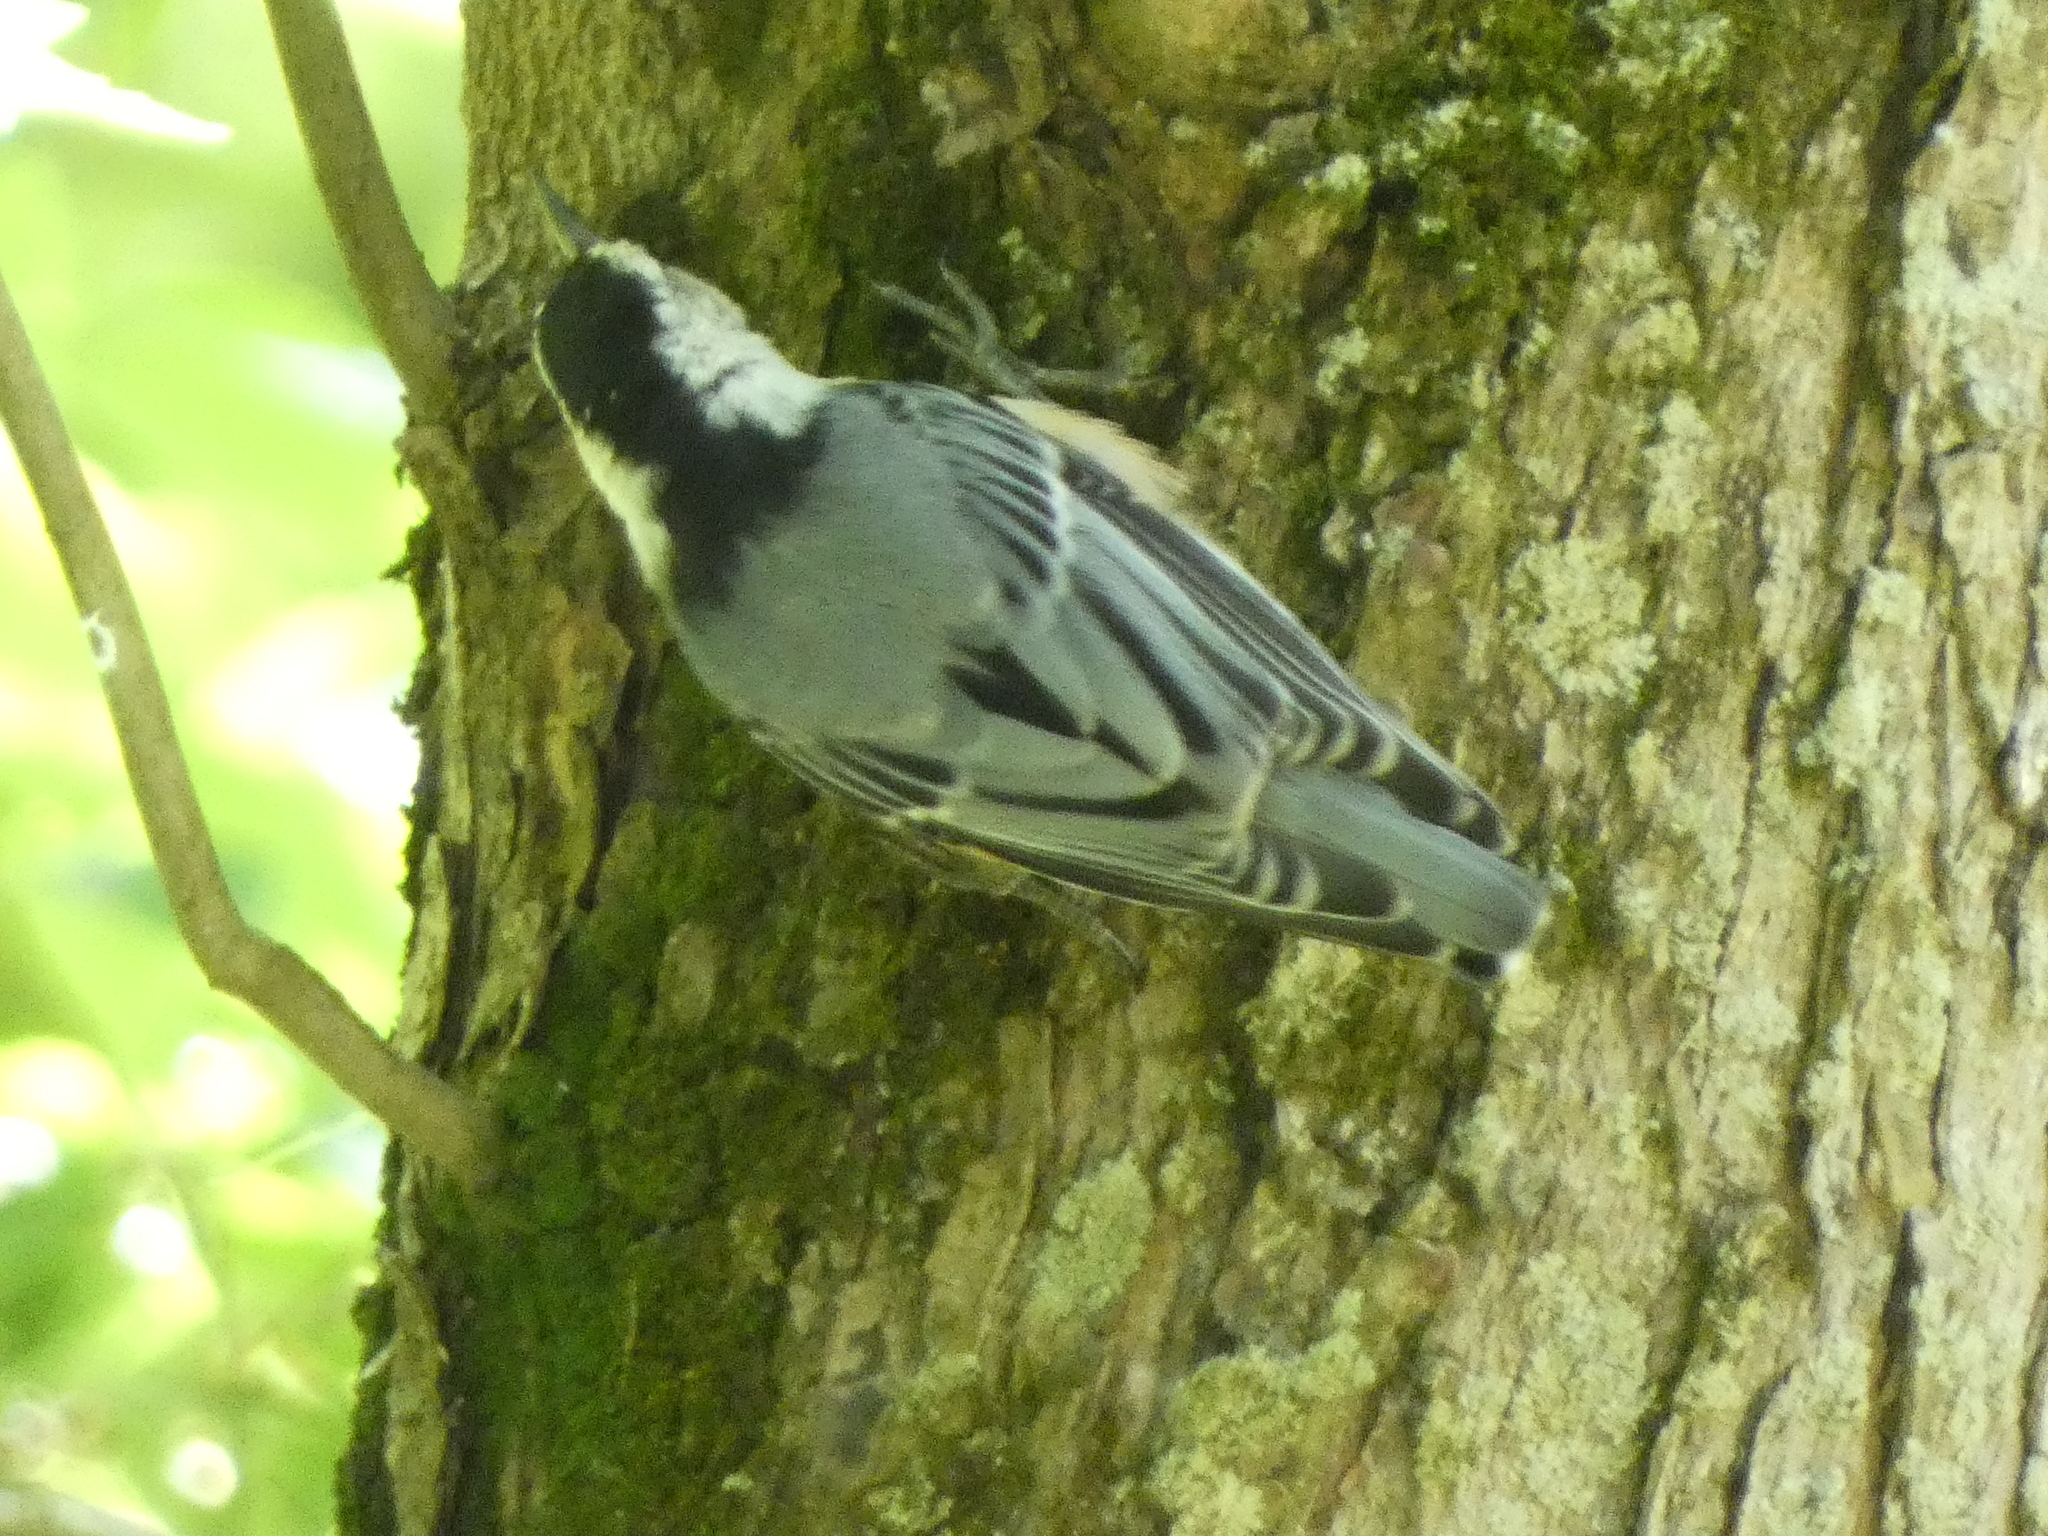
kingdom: Animalia
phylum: Chordata
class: Aves
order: Passeriformes
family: Sittidae
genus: Sitta
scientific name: Sitta carolinensis
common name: White-breasted nuthatch
